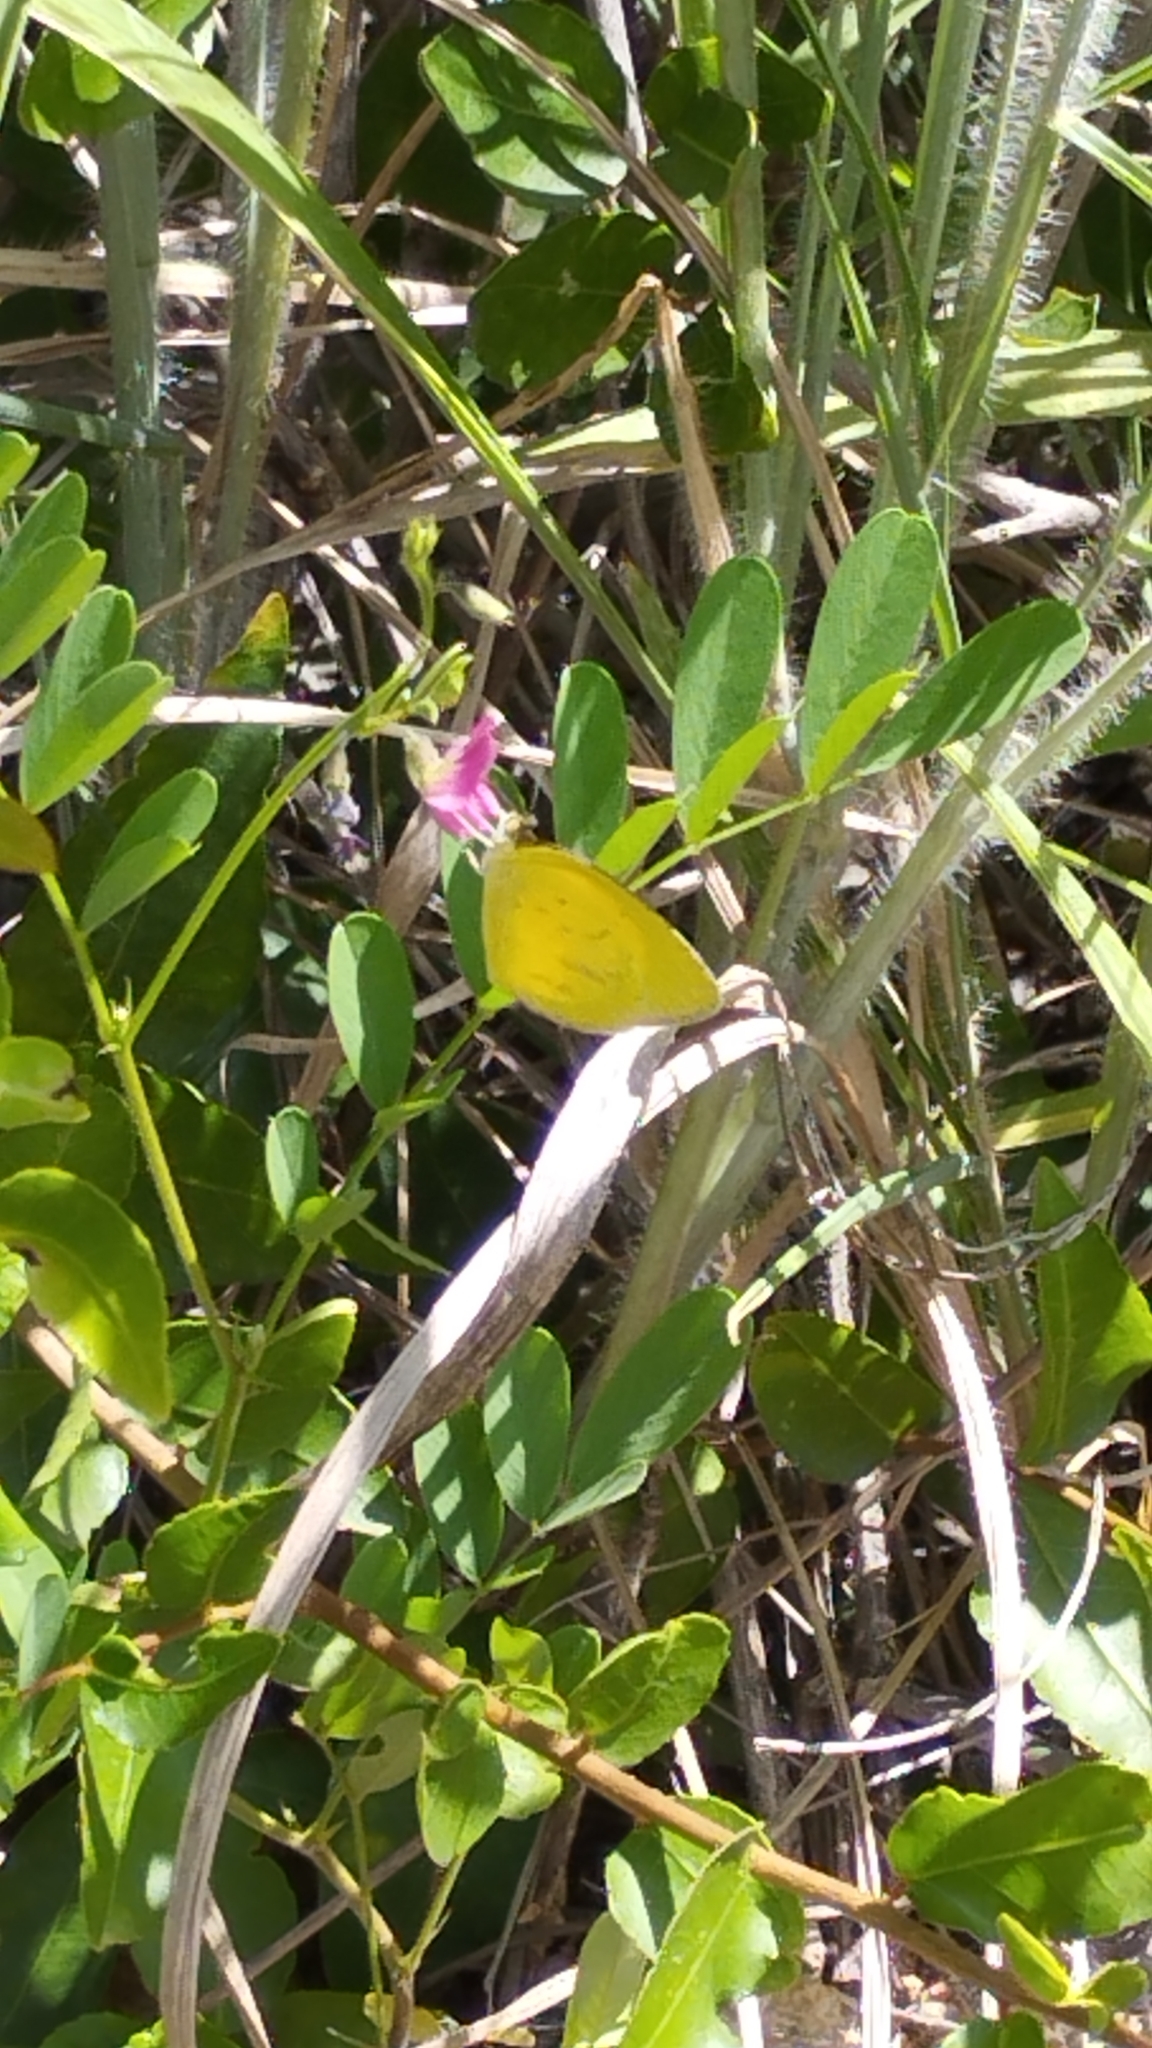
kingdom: Animalia
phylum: Arthropoda
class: Insecta
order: Lepidoptera
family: Pieridae
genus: Eurema
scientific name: Eurema brigitta
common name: Small grass yellow
